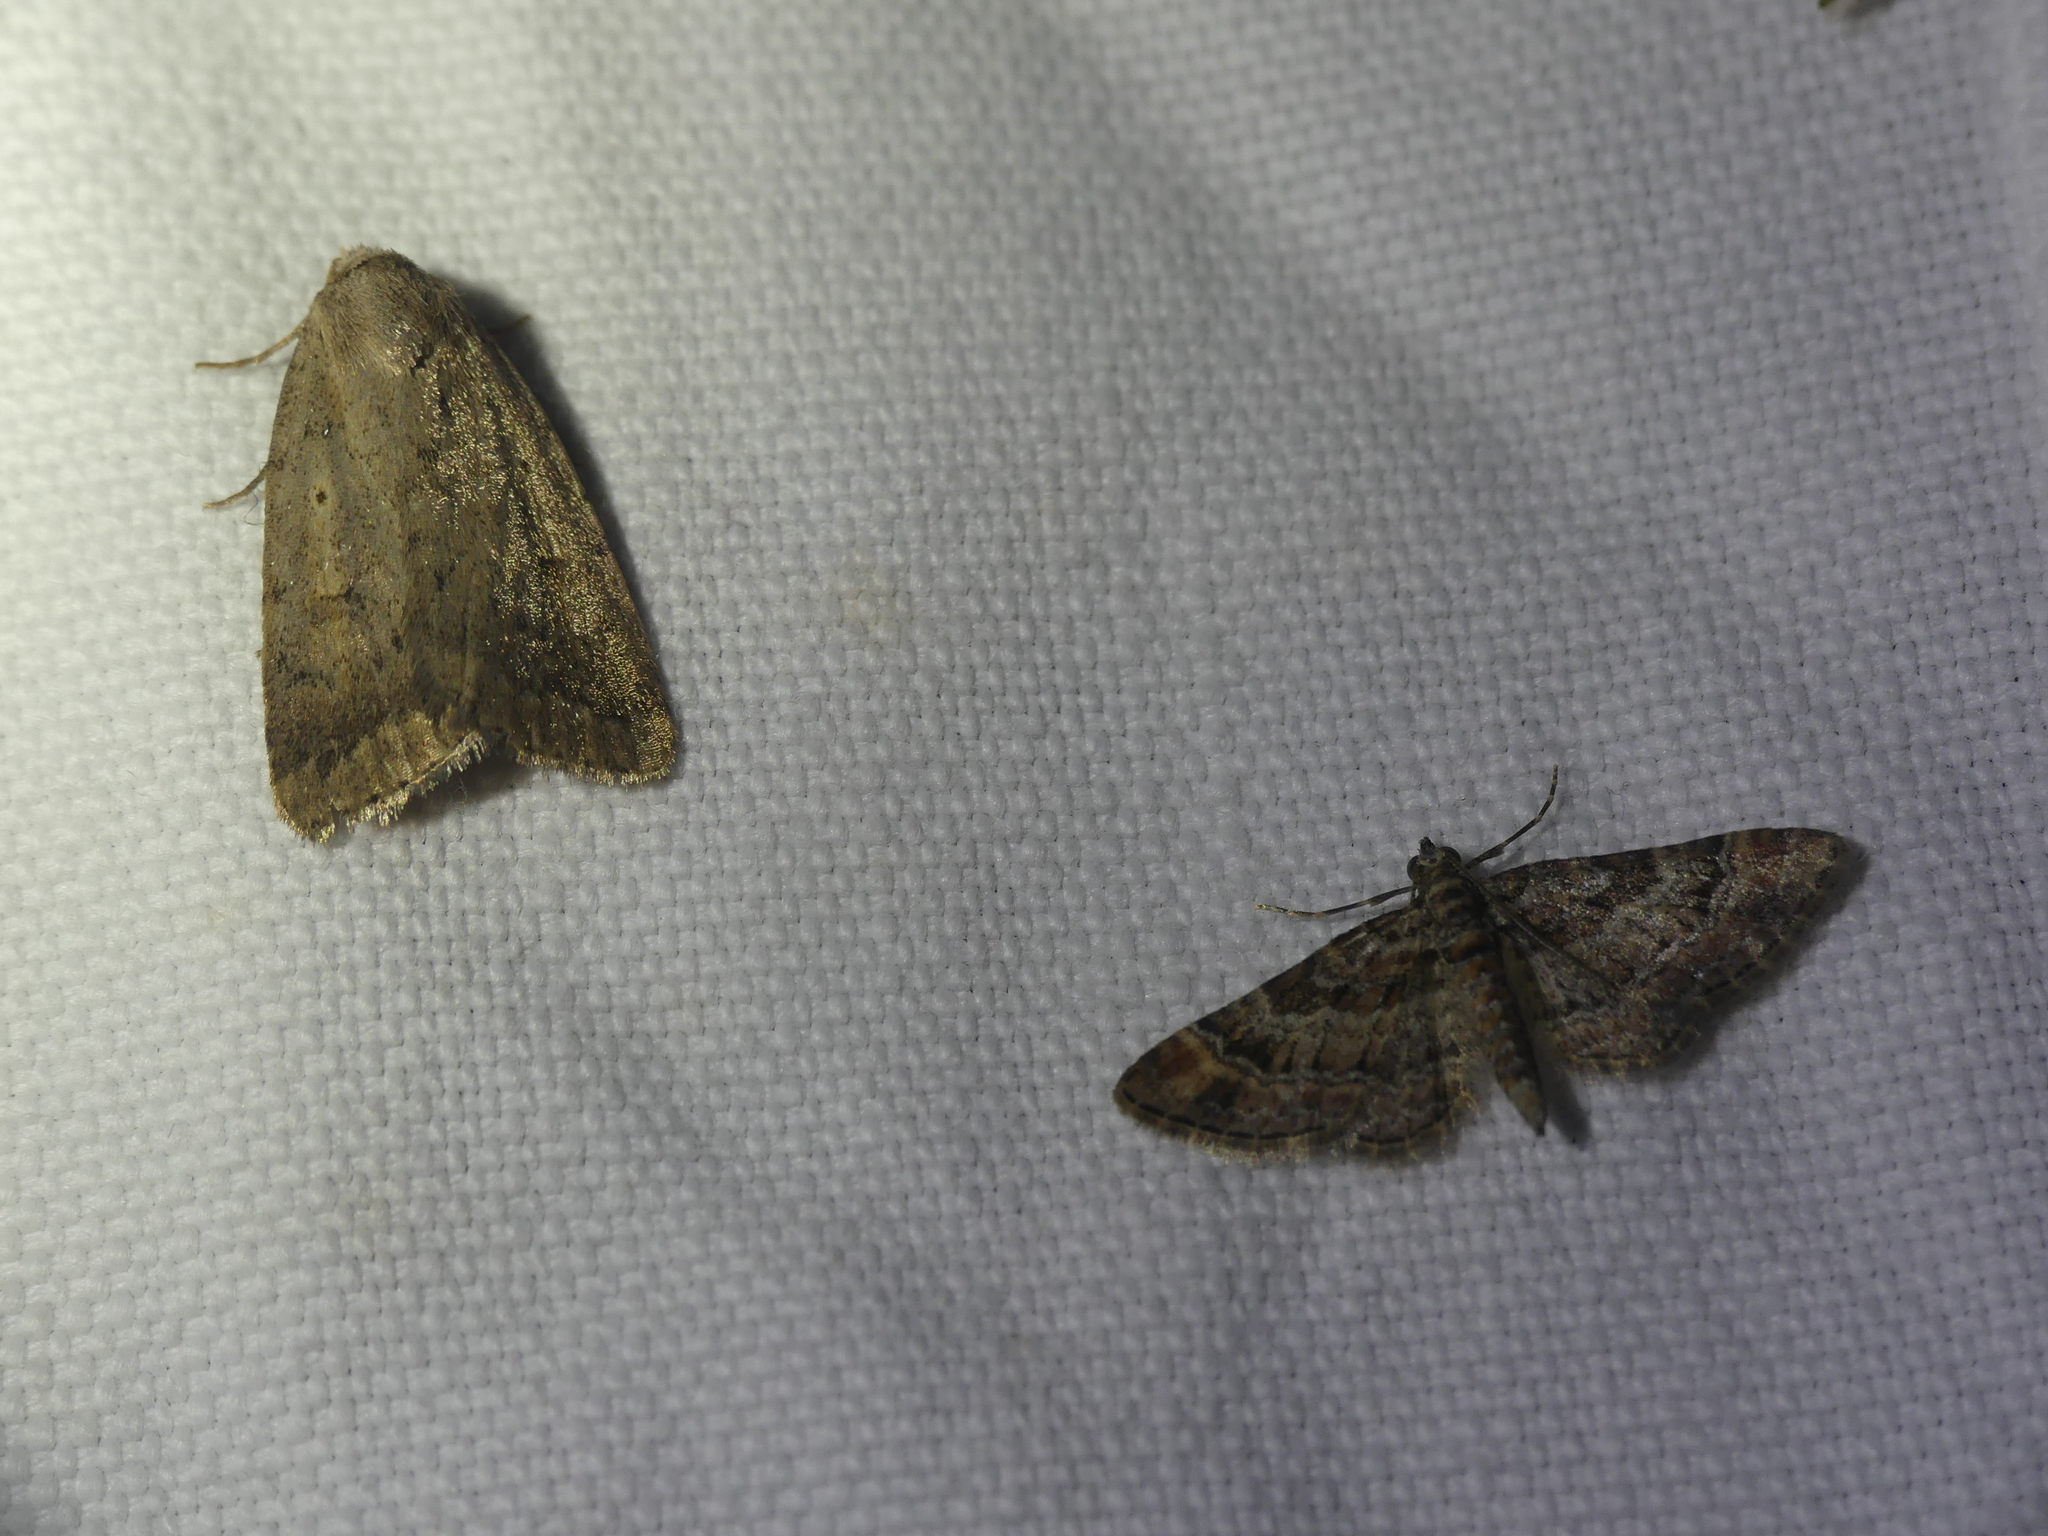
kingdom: Animalia
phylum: Arthropoda
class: Insecta
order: Lepidoptera
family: Geometridae
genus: Gymnoscelis
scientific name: Gymnoscelis rufifasciata
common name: Double-striped pug
